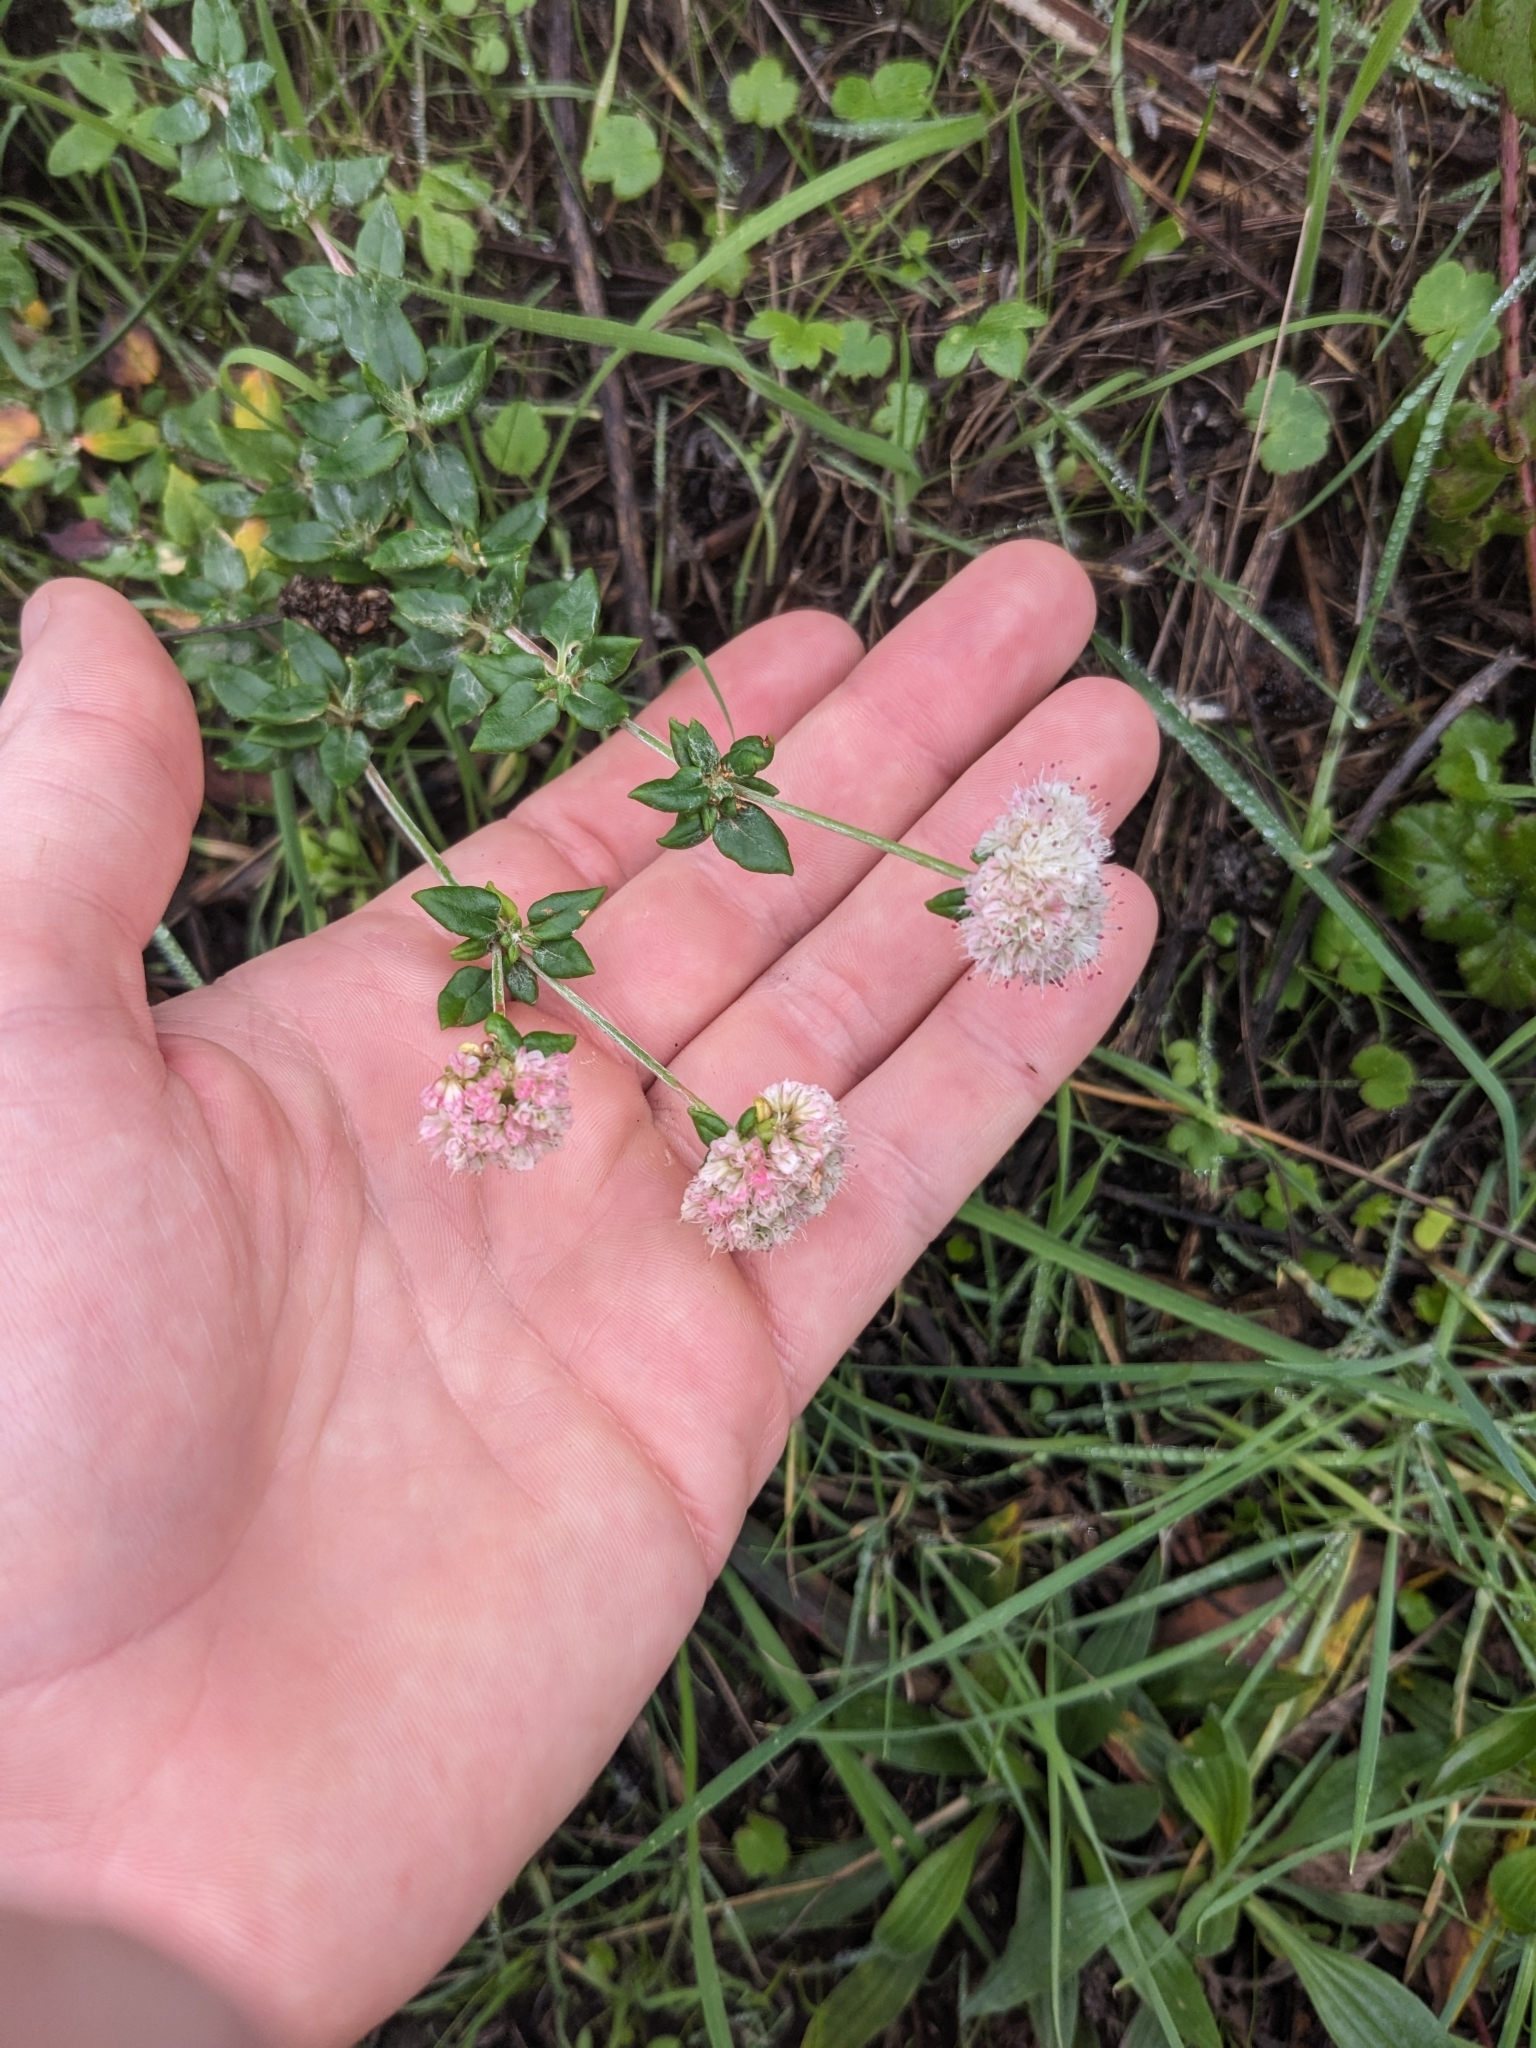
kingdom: Plantae
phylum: Tracheophyta
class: Magnoliopsida
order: Caryophyllales
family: Polygonaceae
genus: Eriogonum
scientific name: Eriogonum parvifolium
